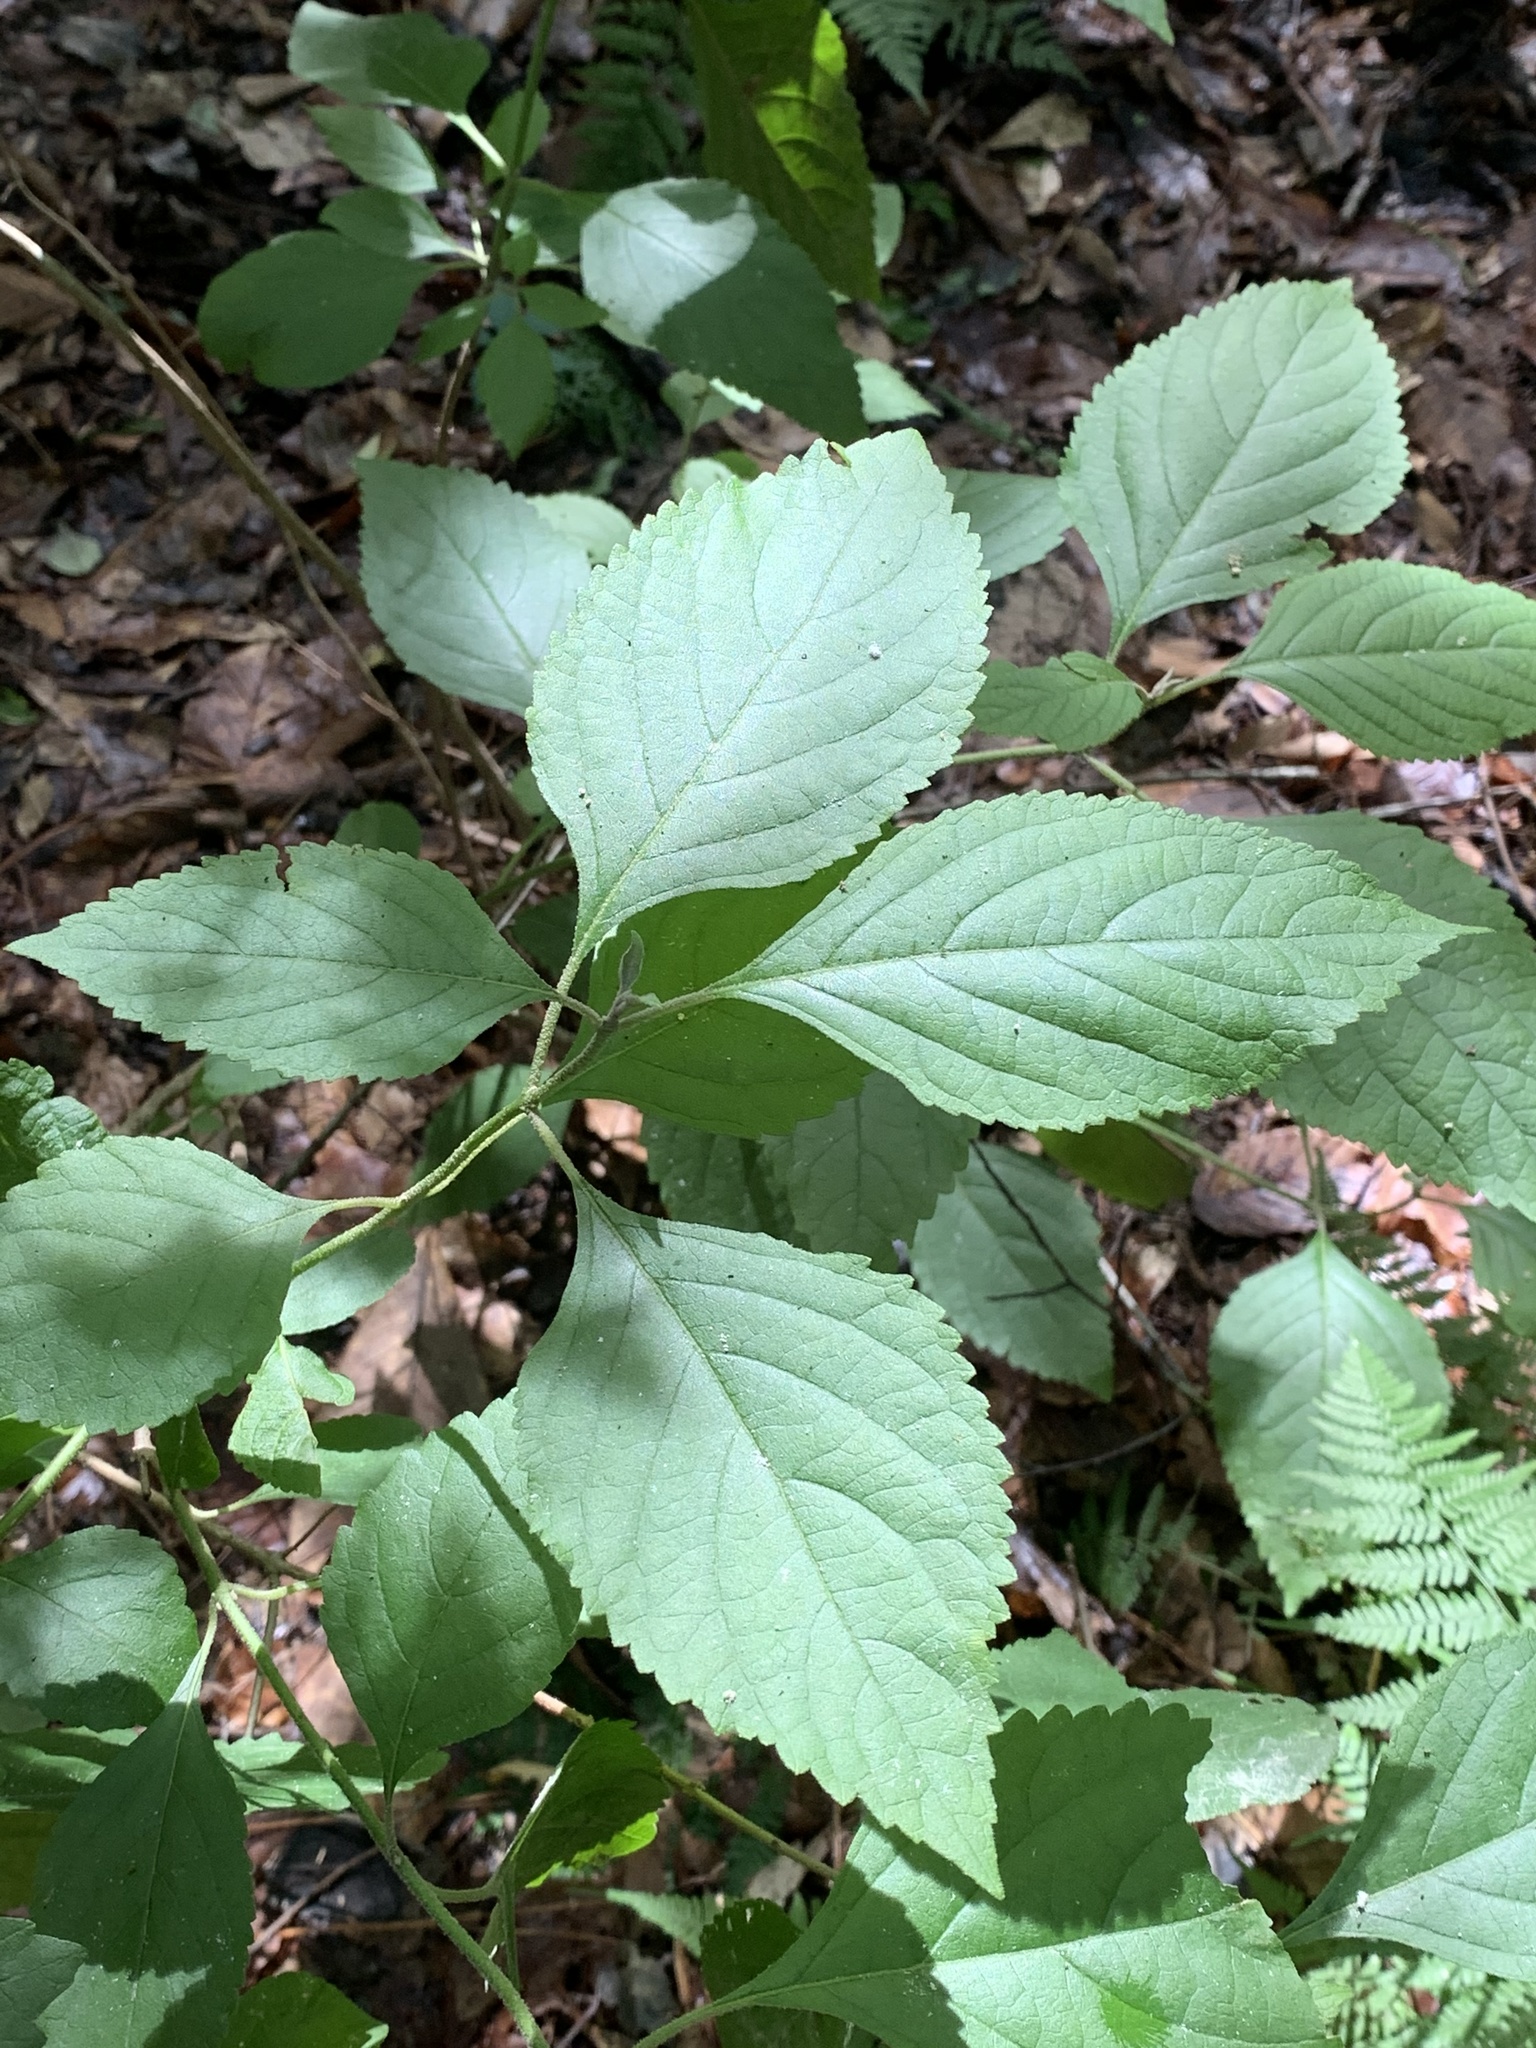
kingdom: Plantae
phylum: Tracheophyta
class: Magnoliopsida
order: Lamiales
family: Lamiaceae
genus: Callicarpa
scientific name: Callicarpa americana
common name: American beautyberry
